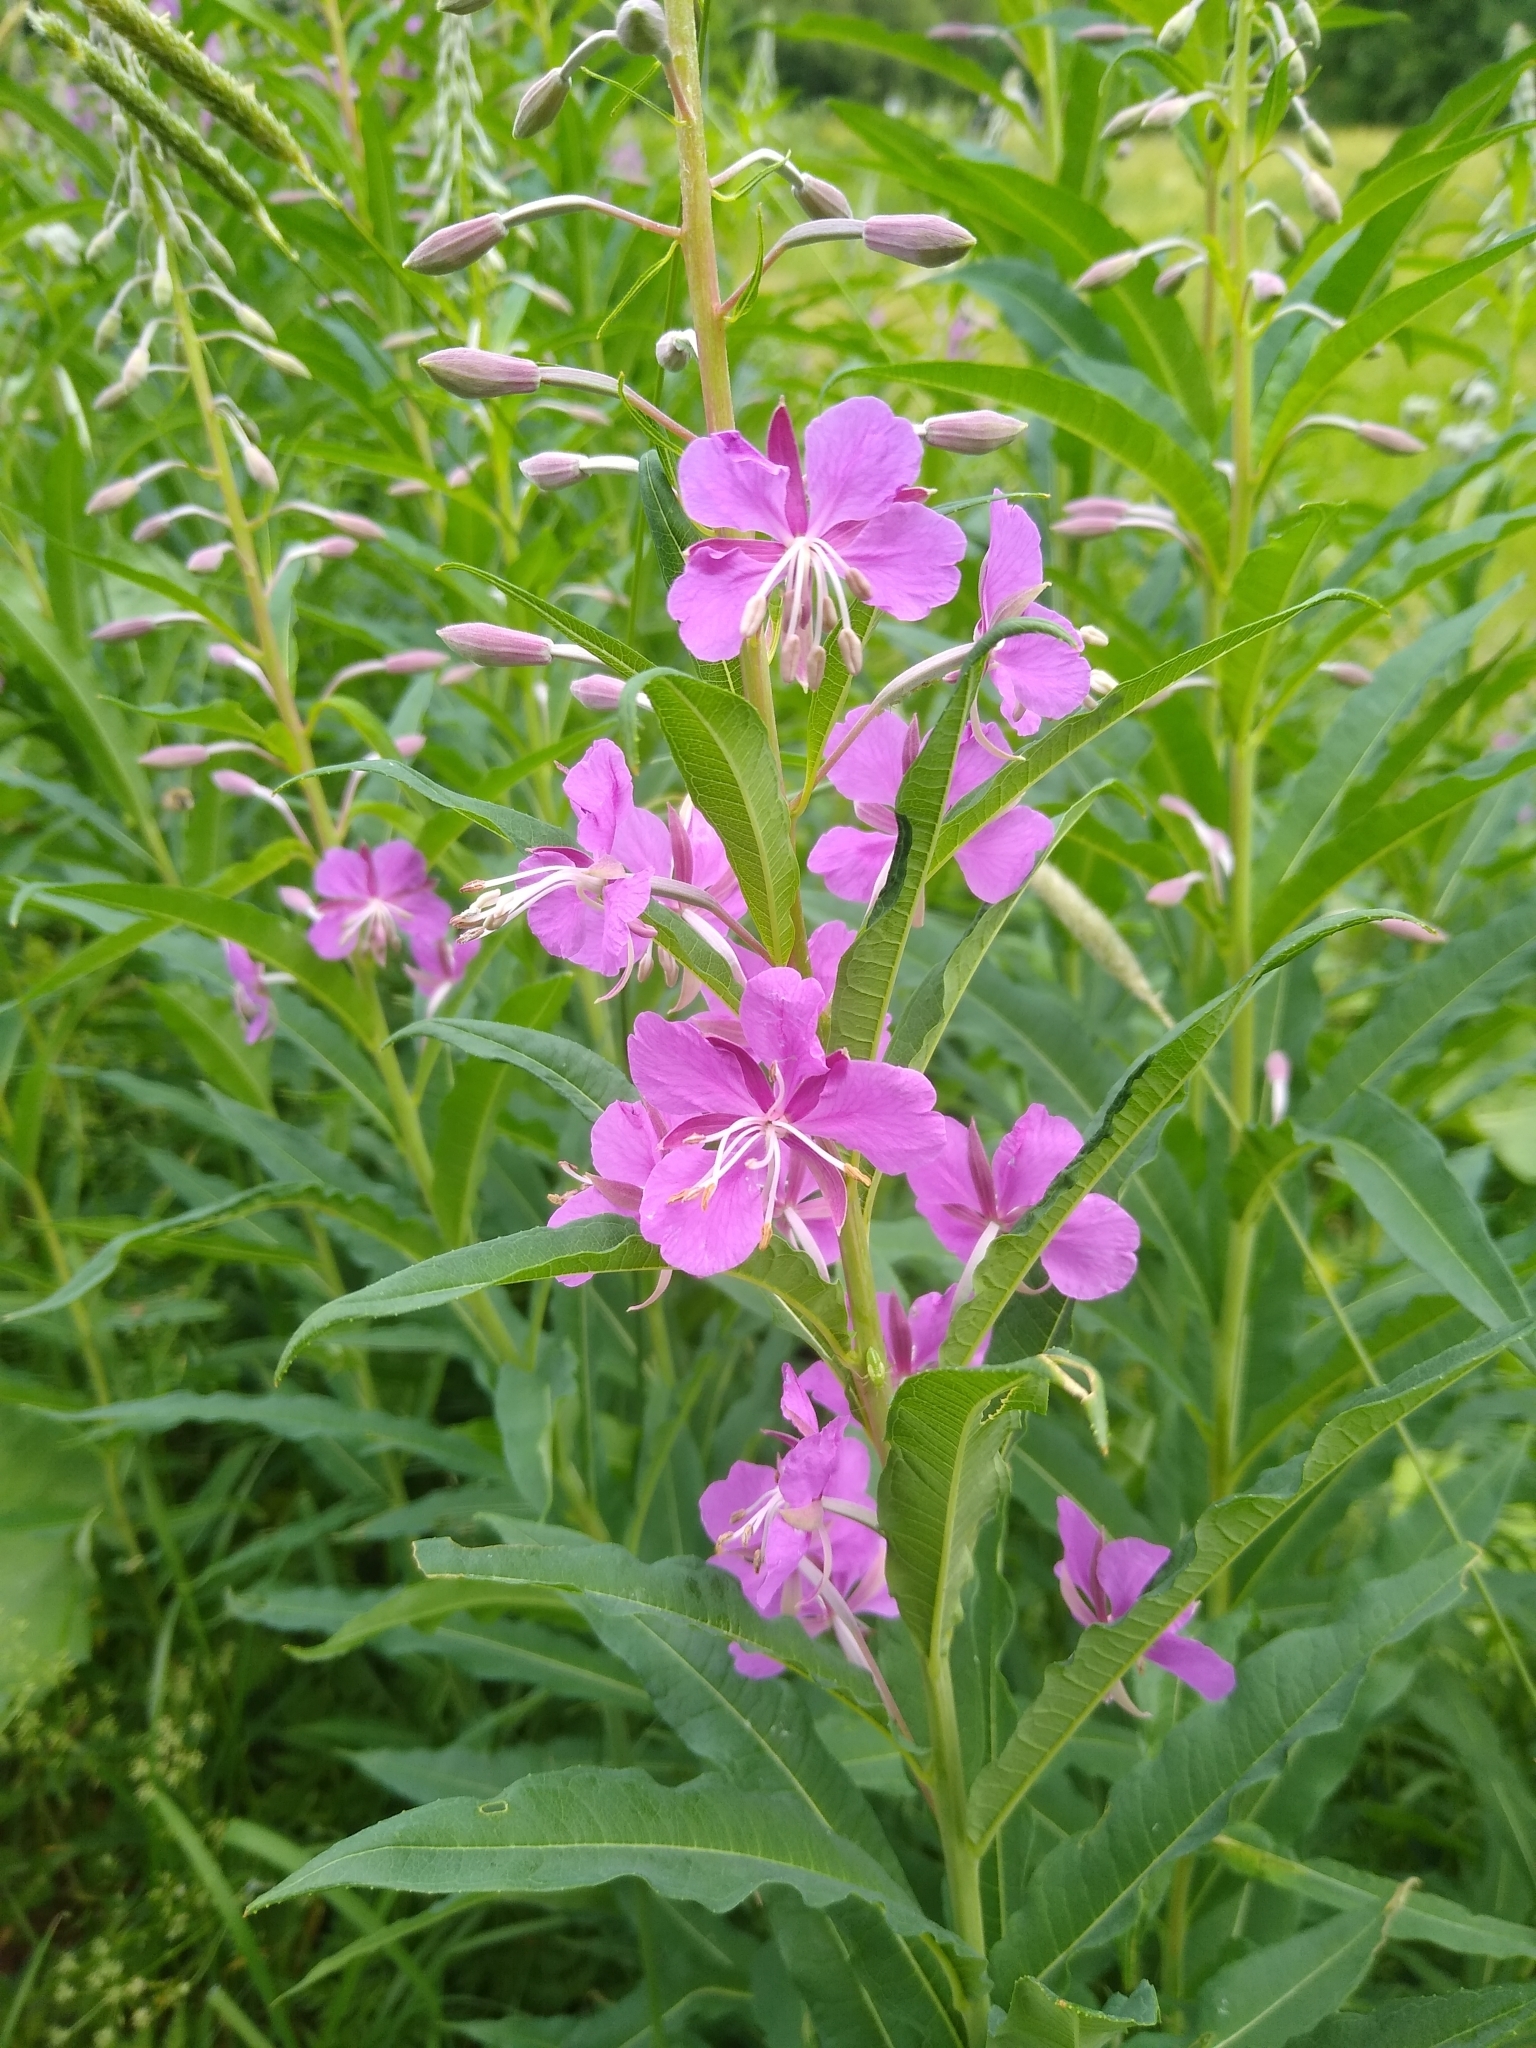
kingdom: Plantae
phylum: Tracheophyta
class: Magnoliopsida
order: Myrtales
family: Onagraceae
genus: Chamaenerion
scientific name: Chamaenerion angustifolium
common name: Fireweed
